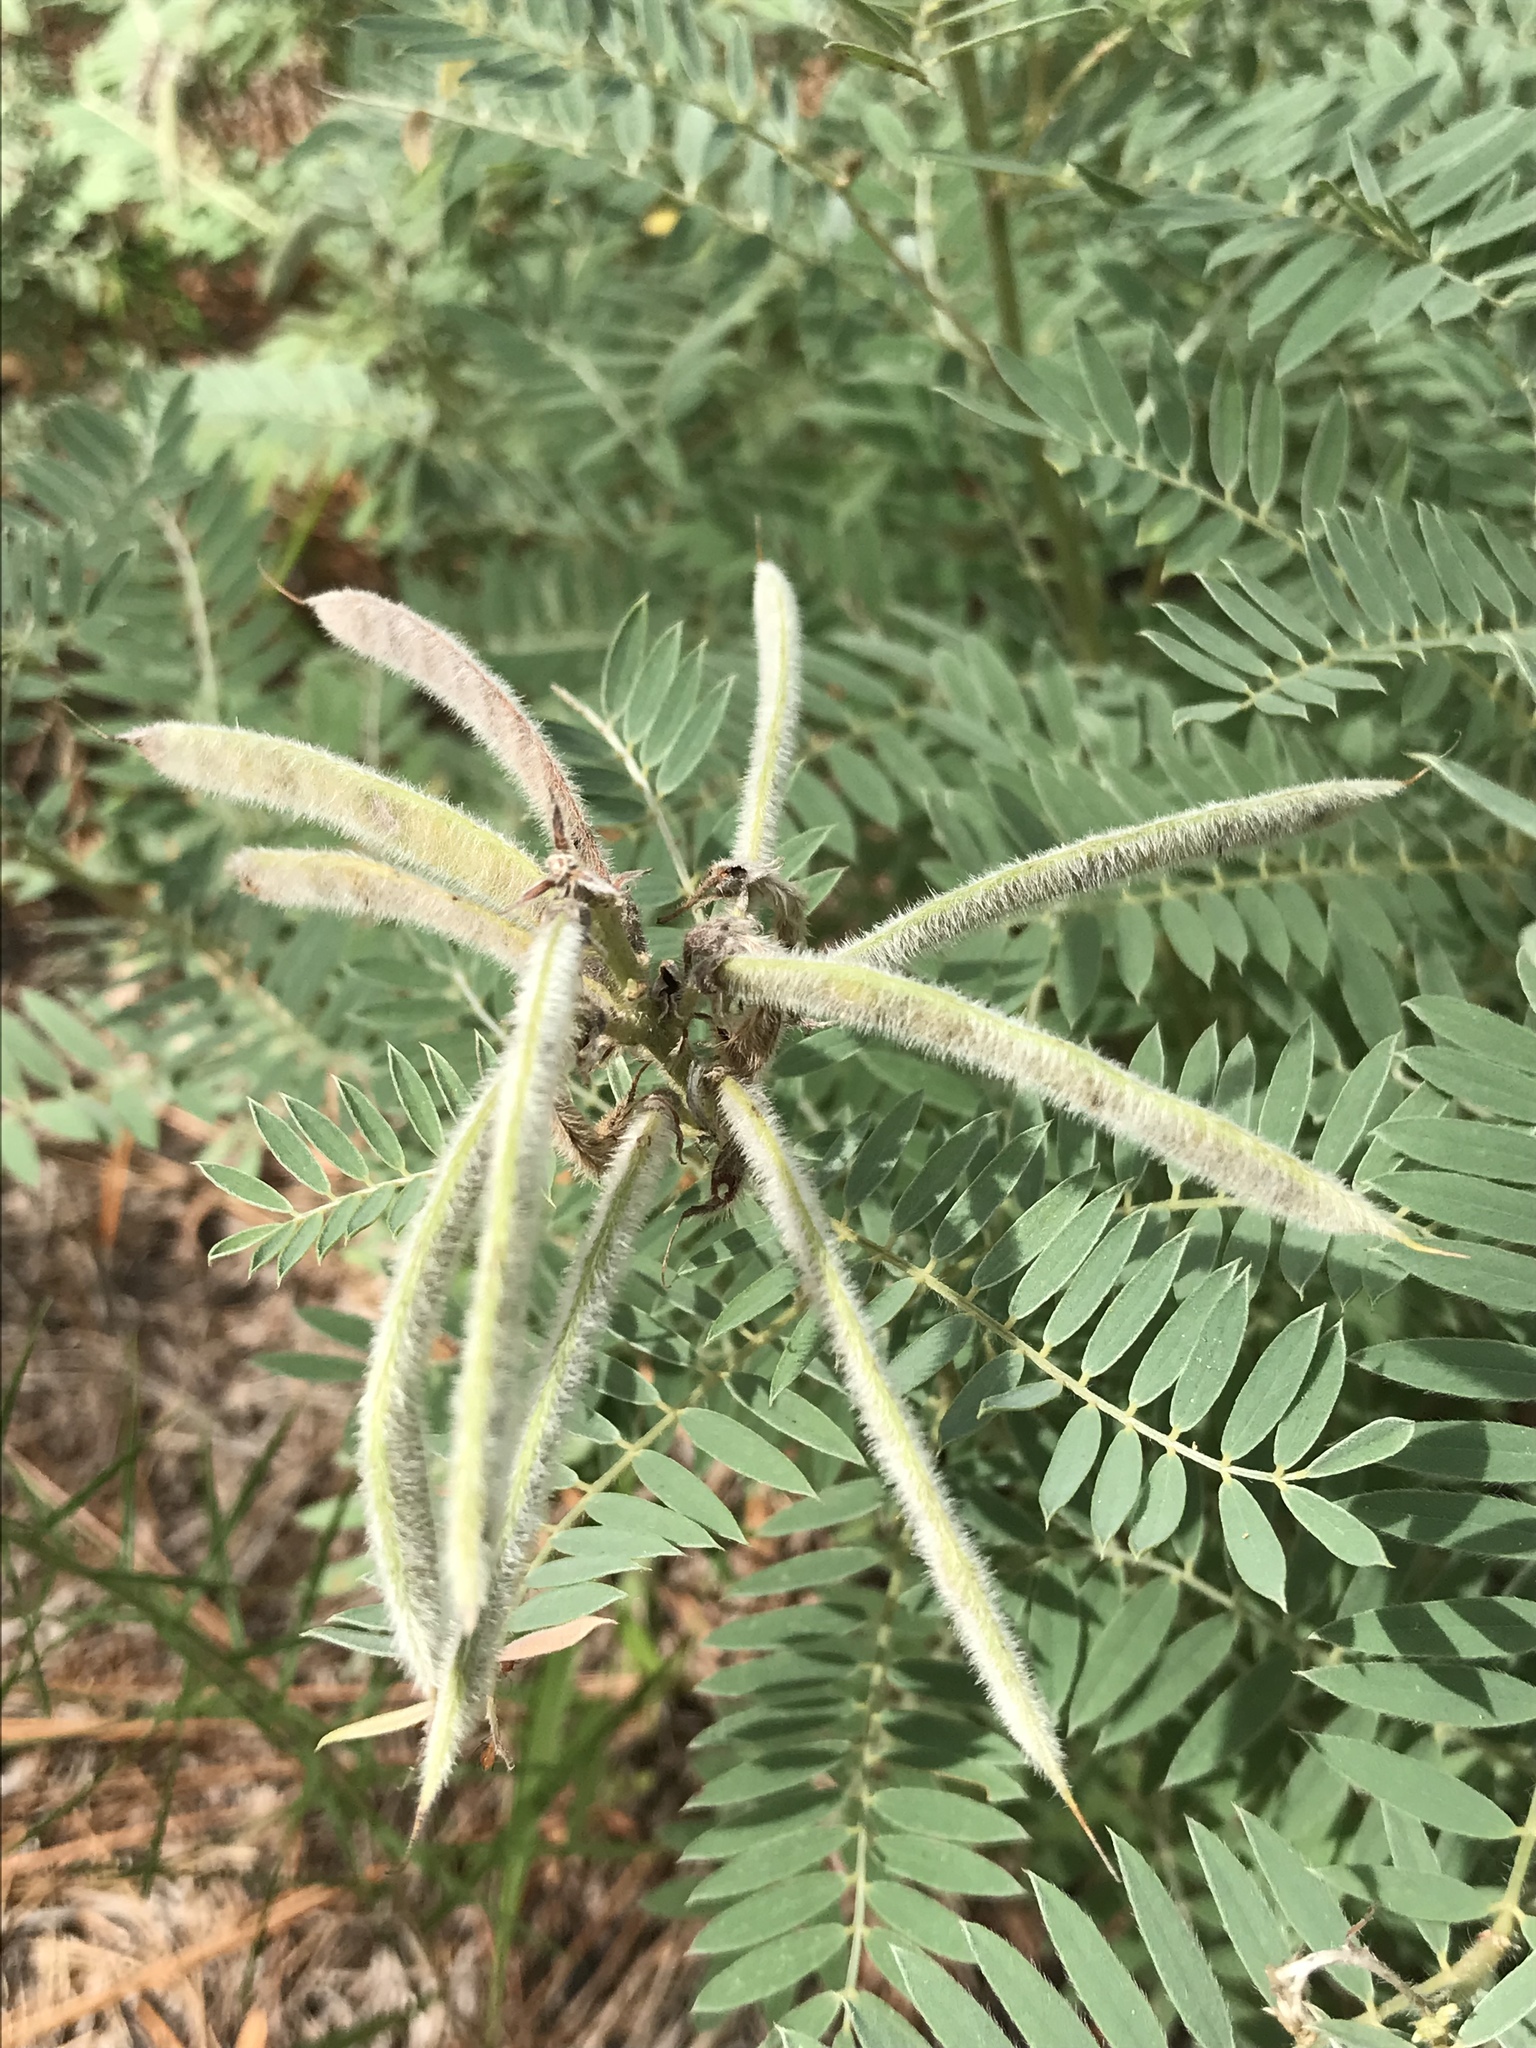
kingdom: Plantae
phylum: Tracheophyta
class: Magnoliopsida
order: Fabales
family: Fabaceae
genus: Tephrosia
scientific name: Tephrosia virginiana
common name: Rabbit-pea
